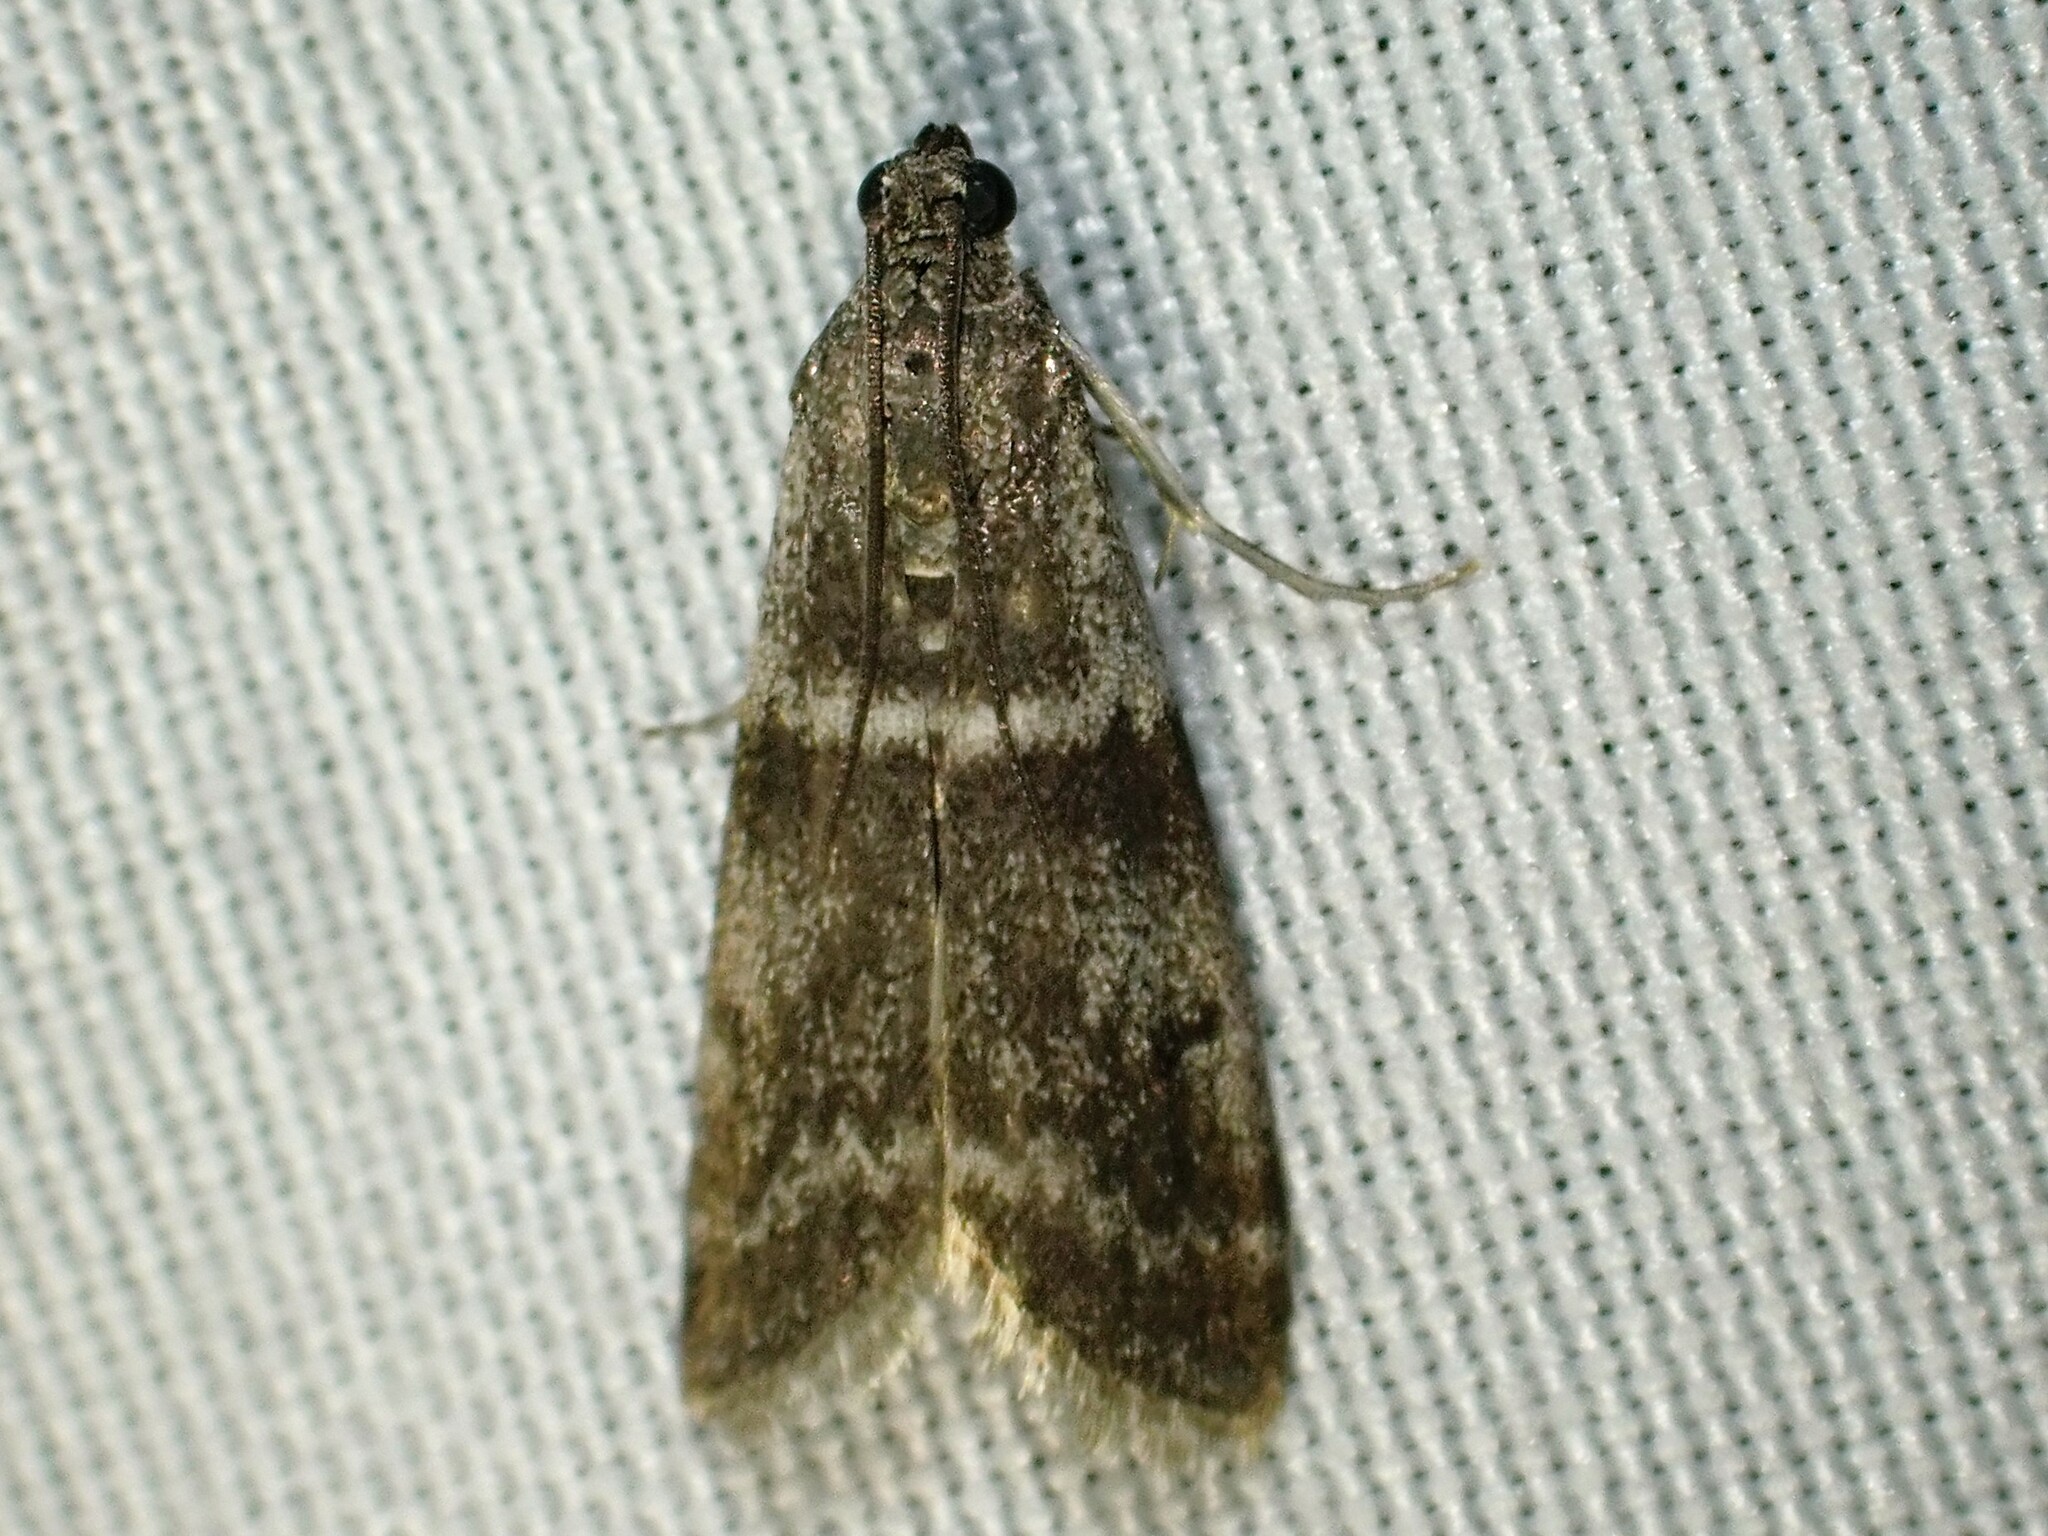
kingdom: Animalia
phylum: Arthropoda
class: Insecta
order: Lepidoptera
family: Pyralidae
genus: Apomyelois
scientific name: Apomyelois bistriatella
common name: Heath knot-horn
